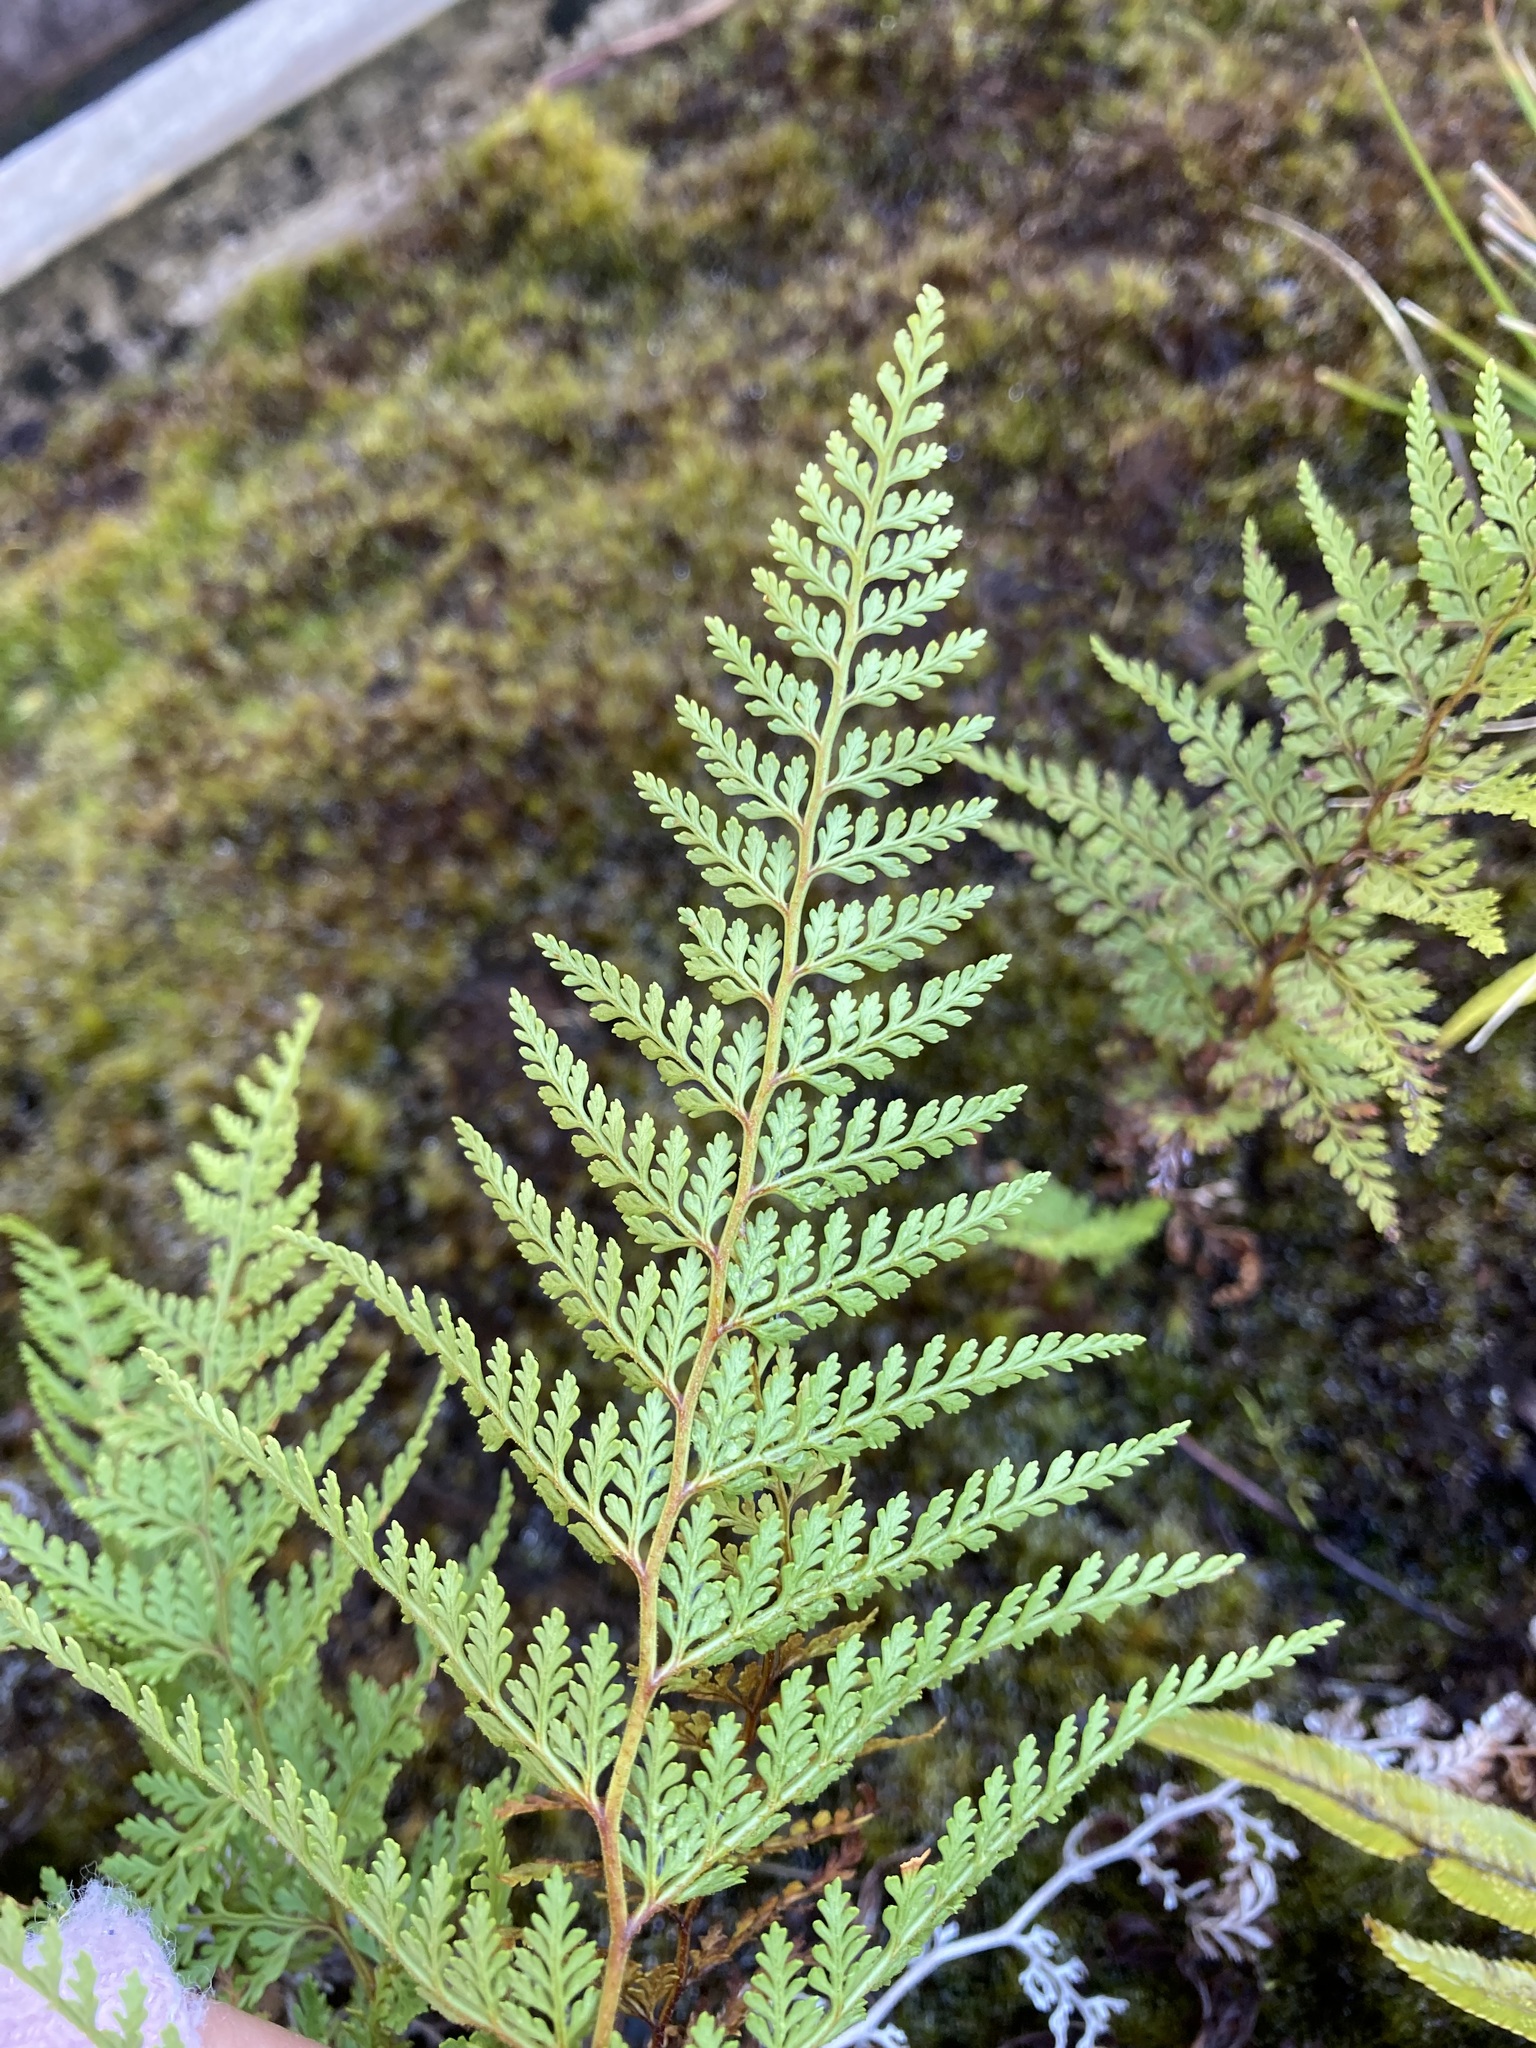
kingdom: Plantae
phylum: Tracheophyta
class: Polypodiopsida
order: Polypodiales
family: Dennstaedtiaceae
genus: Paesia
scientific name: Paesia scaberula
